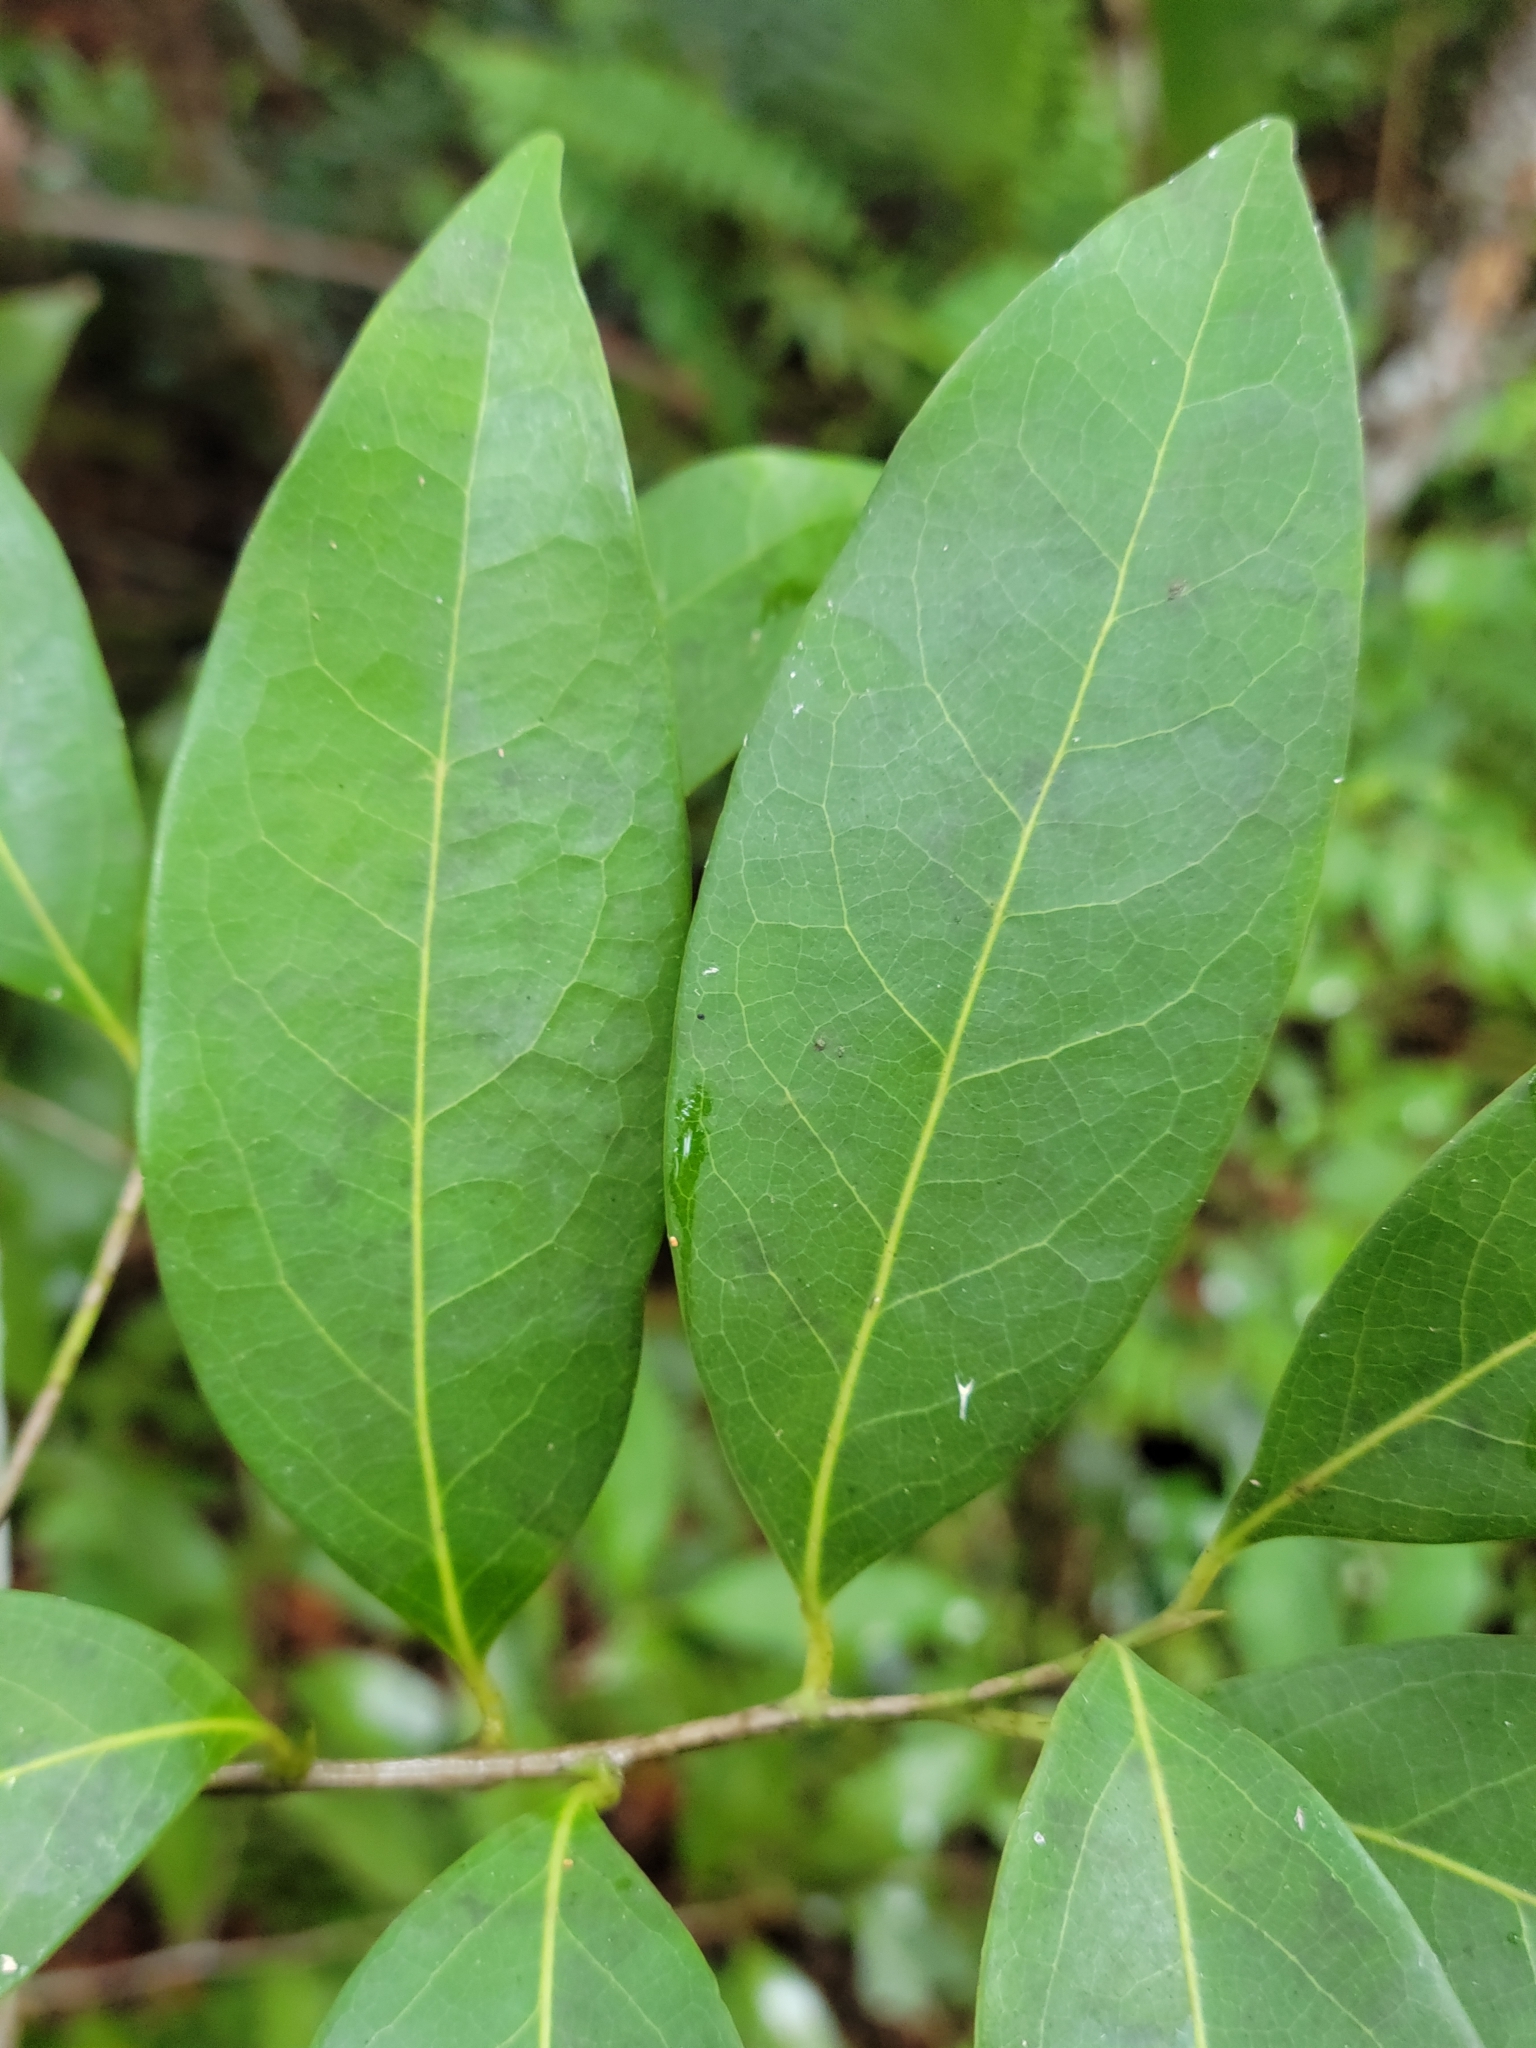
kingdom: Plantae
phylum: Tracheophyta
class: Magnoliopsida
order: Laurales
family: Lauraceae
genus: Damburneya
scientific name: Damburneya
